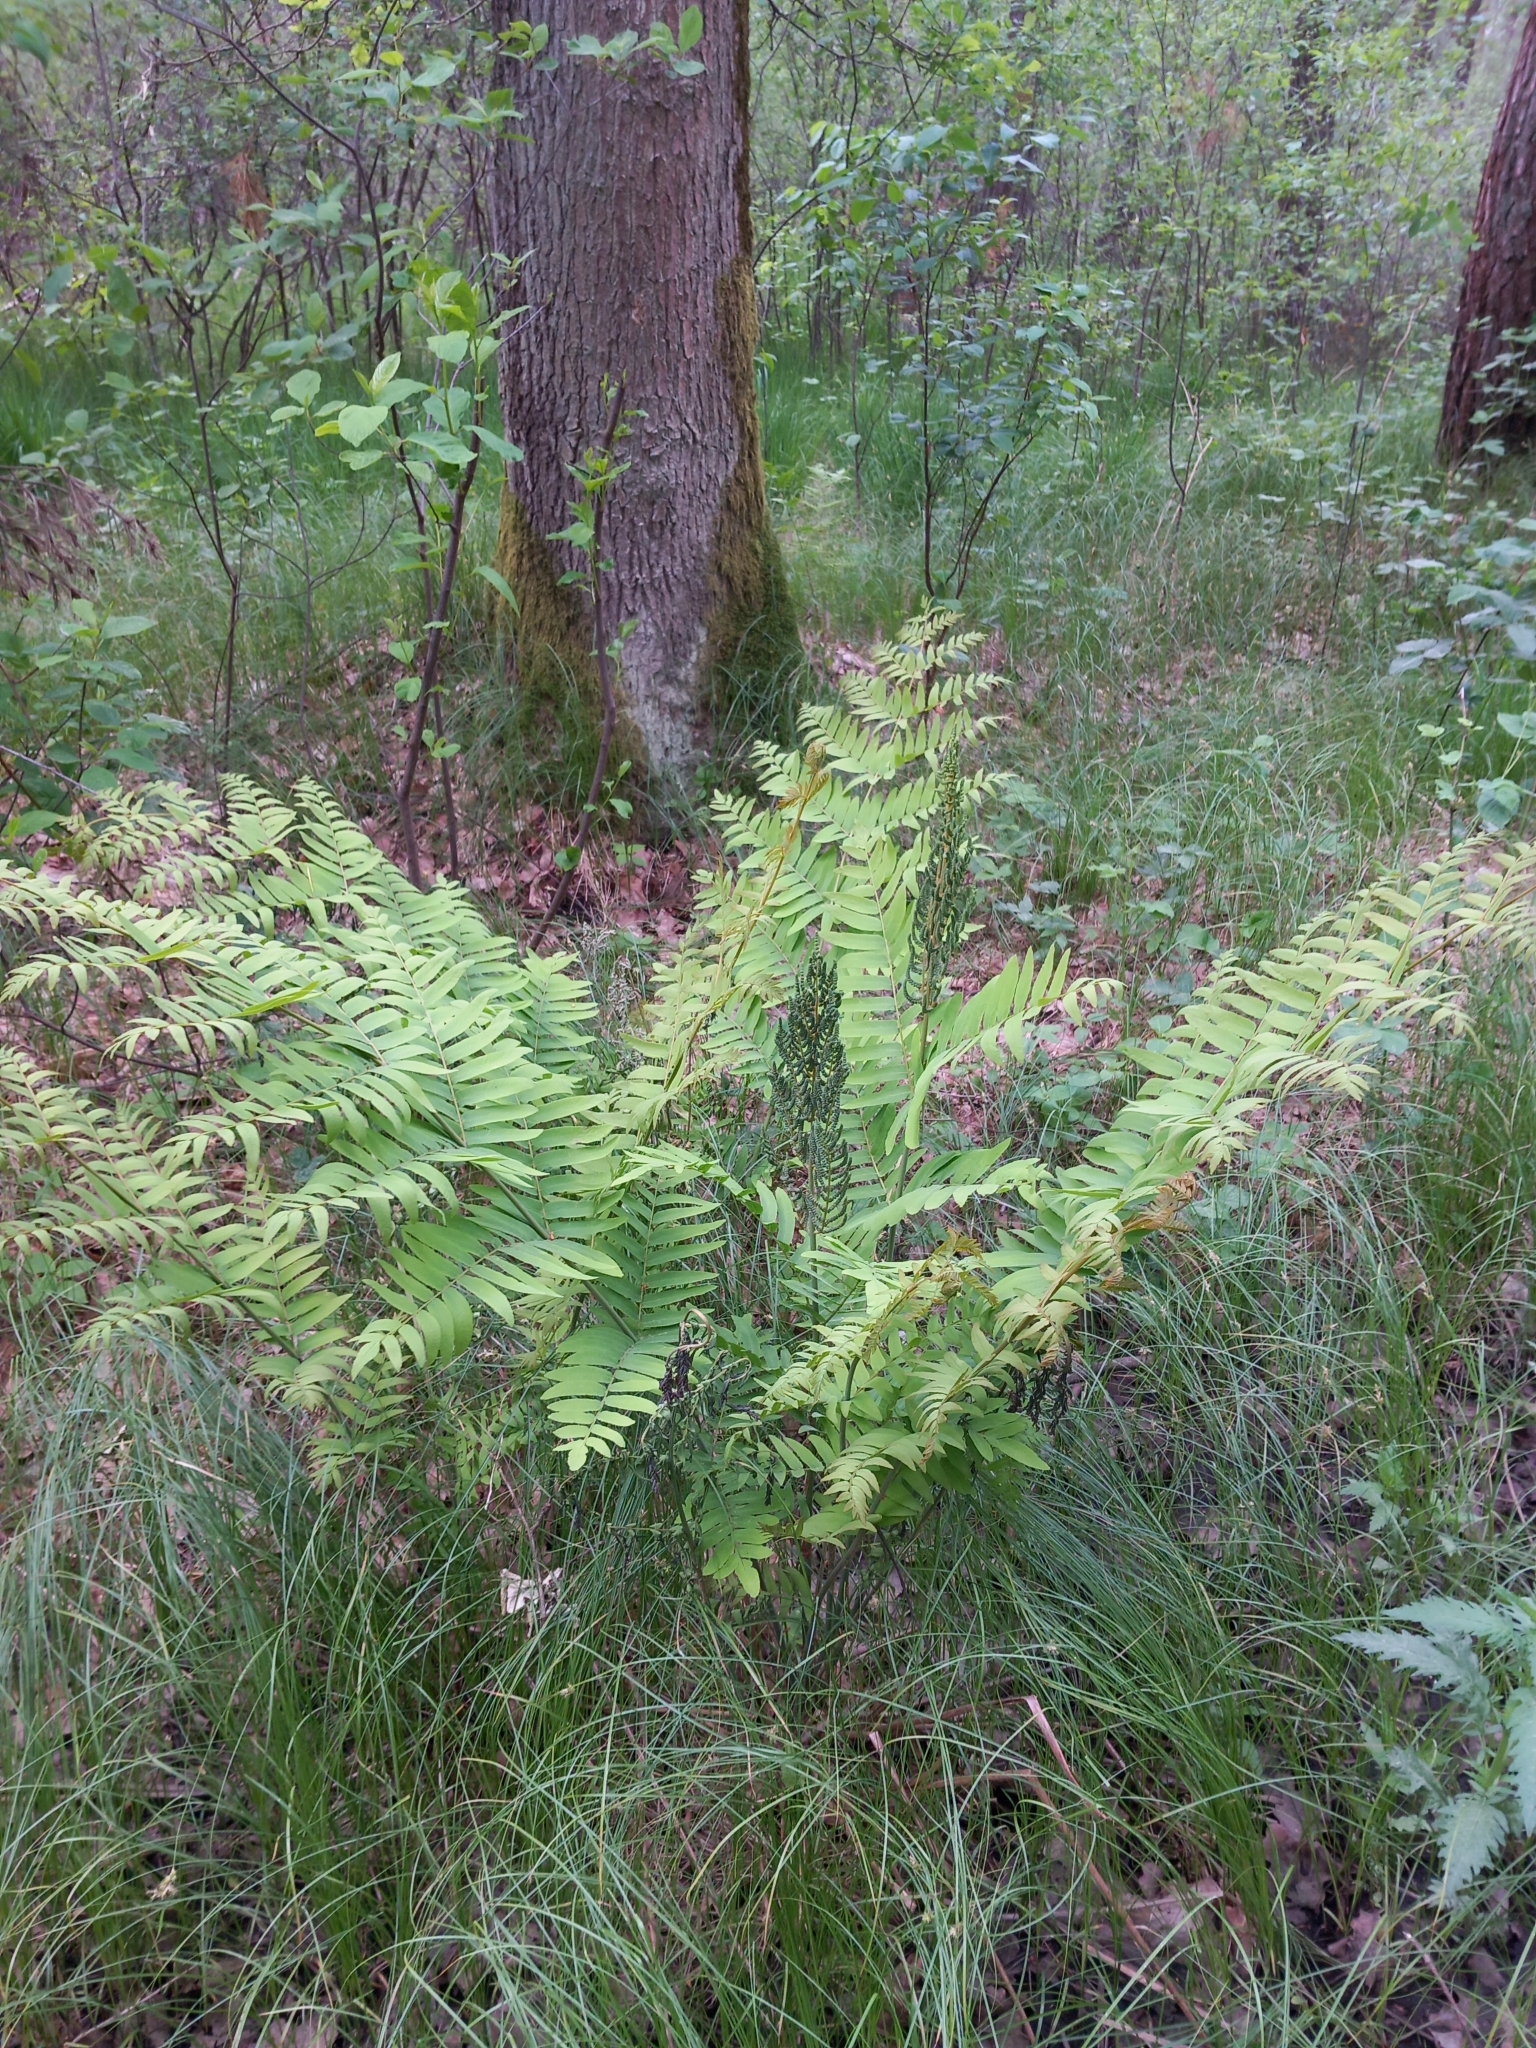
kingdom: Plantae
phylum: Tracheophyta
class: Polypodiopsida
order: Osmundales
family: Osmundaceae
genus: Osmunda
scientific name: Osmunda regalis
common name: Royal fern
